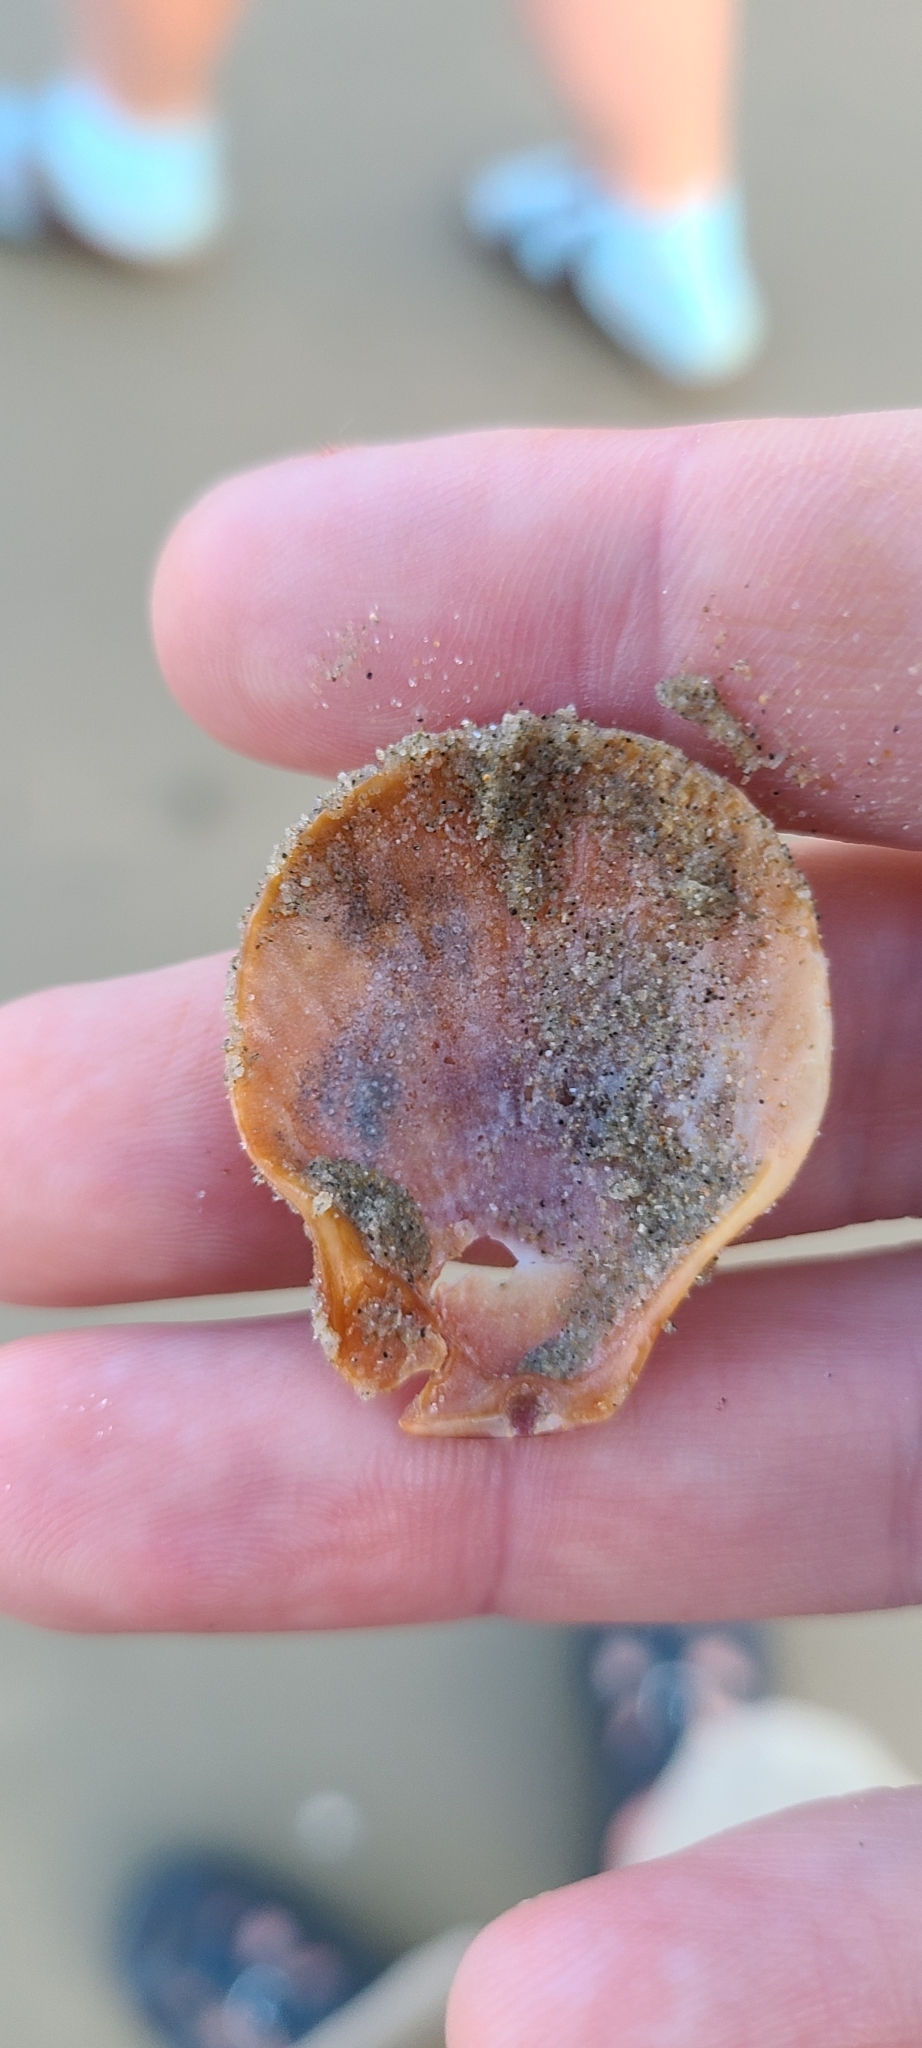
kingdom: Animalia
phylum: Mollusca
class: Bivalvia
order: Pectinida
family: Pectinidae
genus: Talochlamys
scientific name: Talochlamys zelandiae
